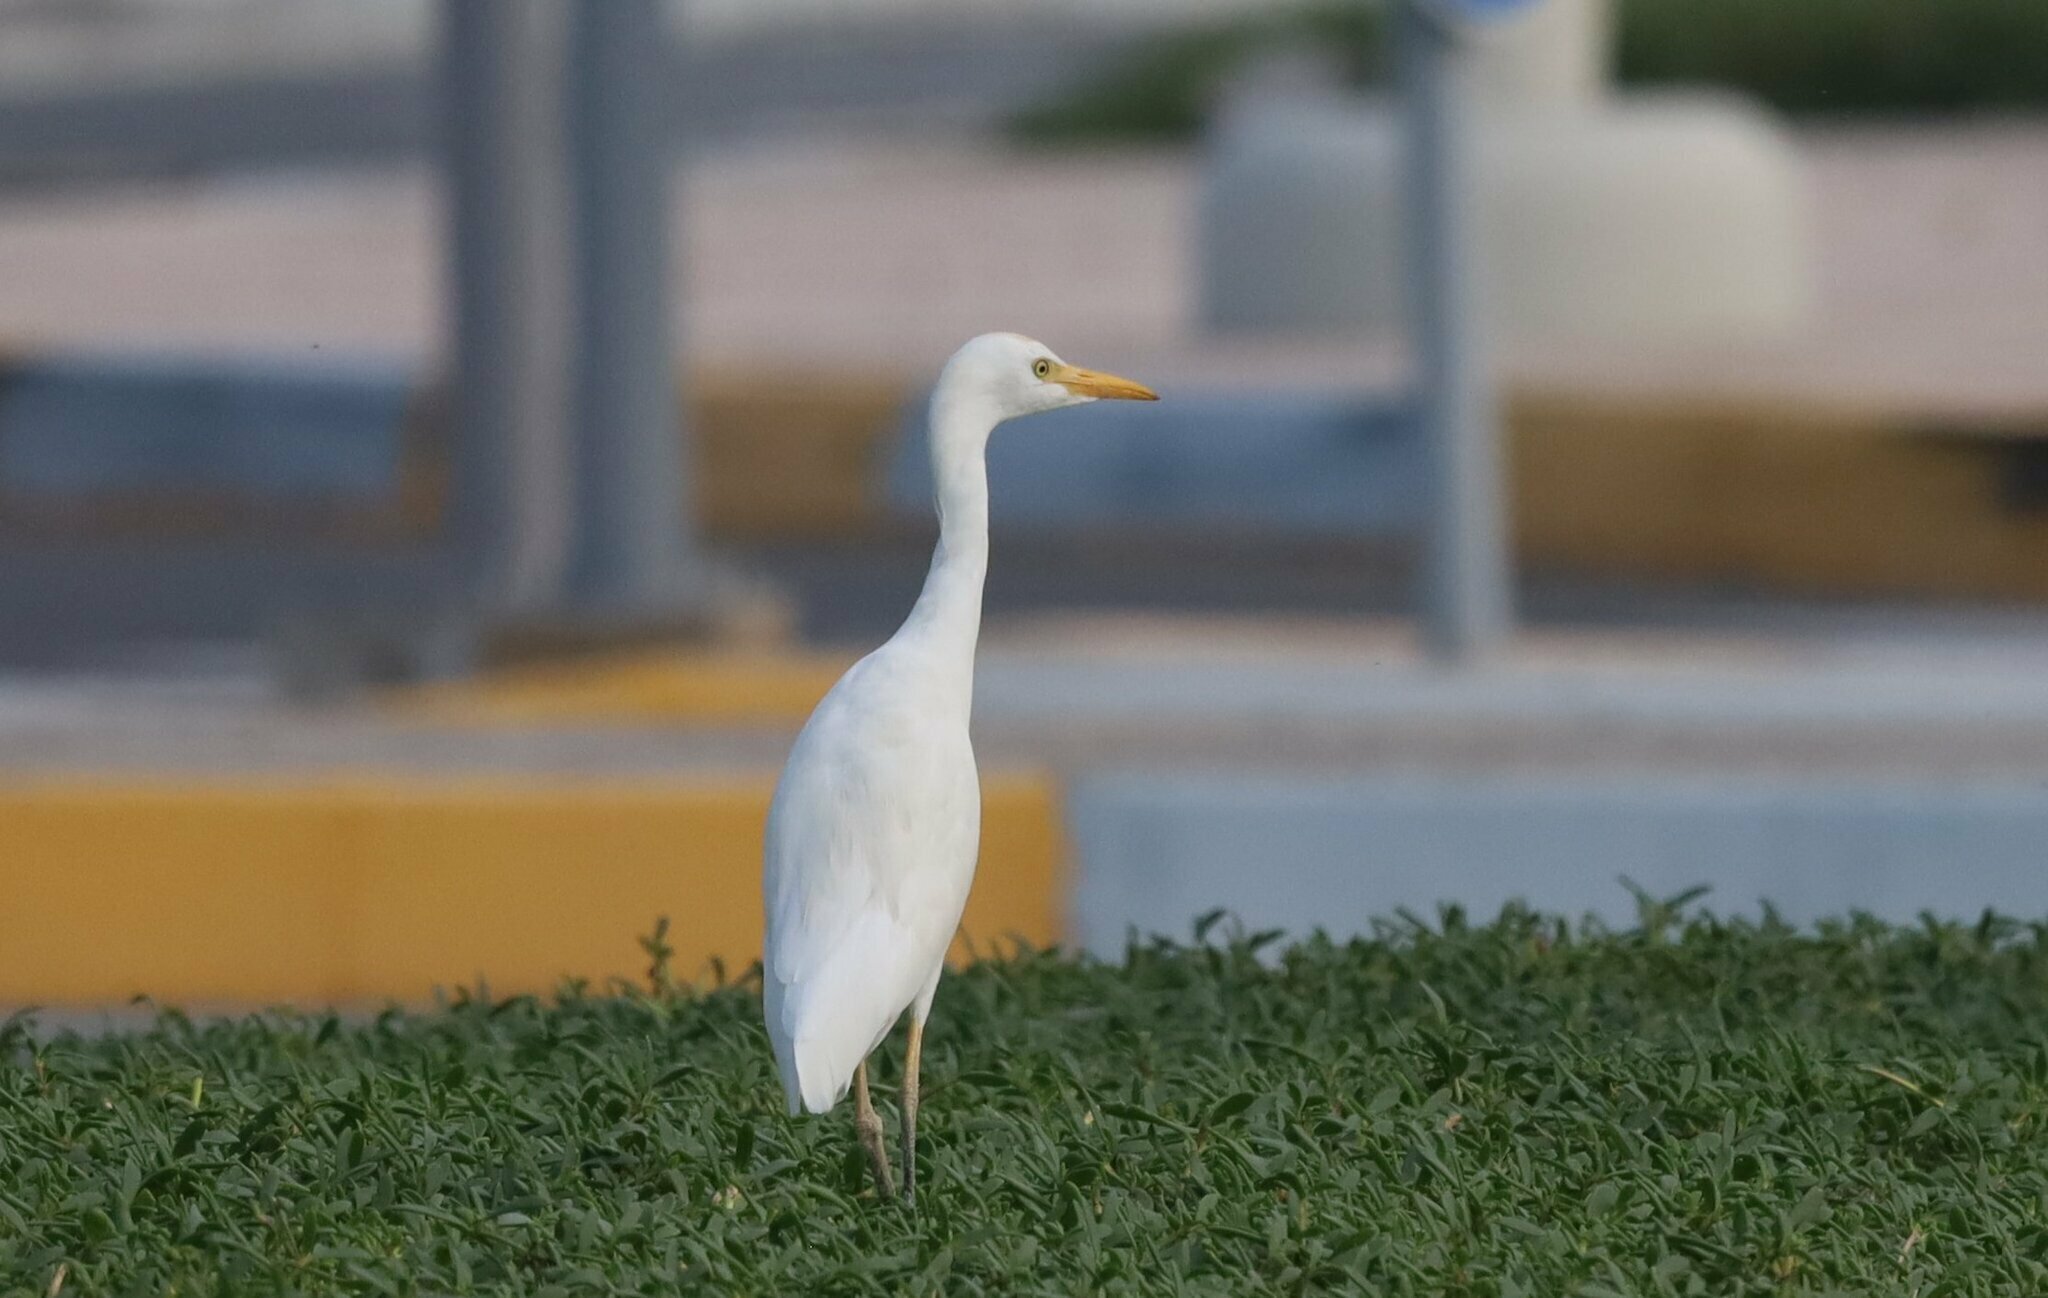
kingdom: Animalia
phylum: Chordata
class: Aves
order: Pelecaniformes
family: Ardeidae
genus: Bubulcus
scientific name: Bubulcus ibis
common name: Cattle egret
